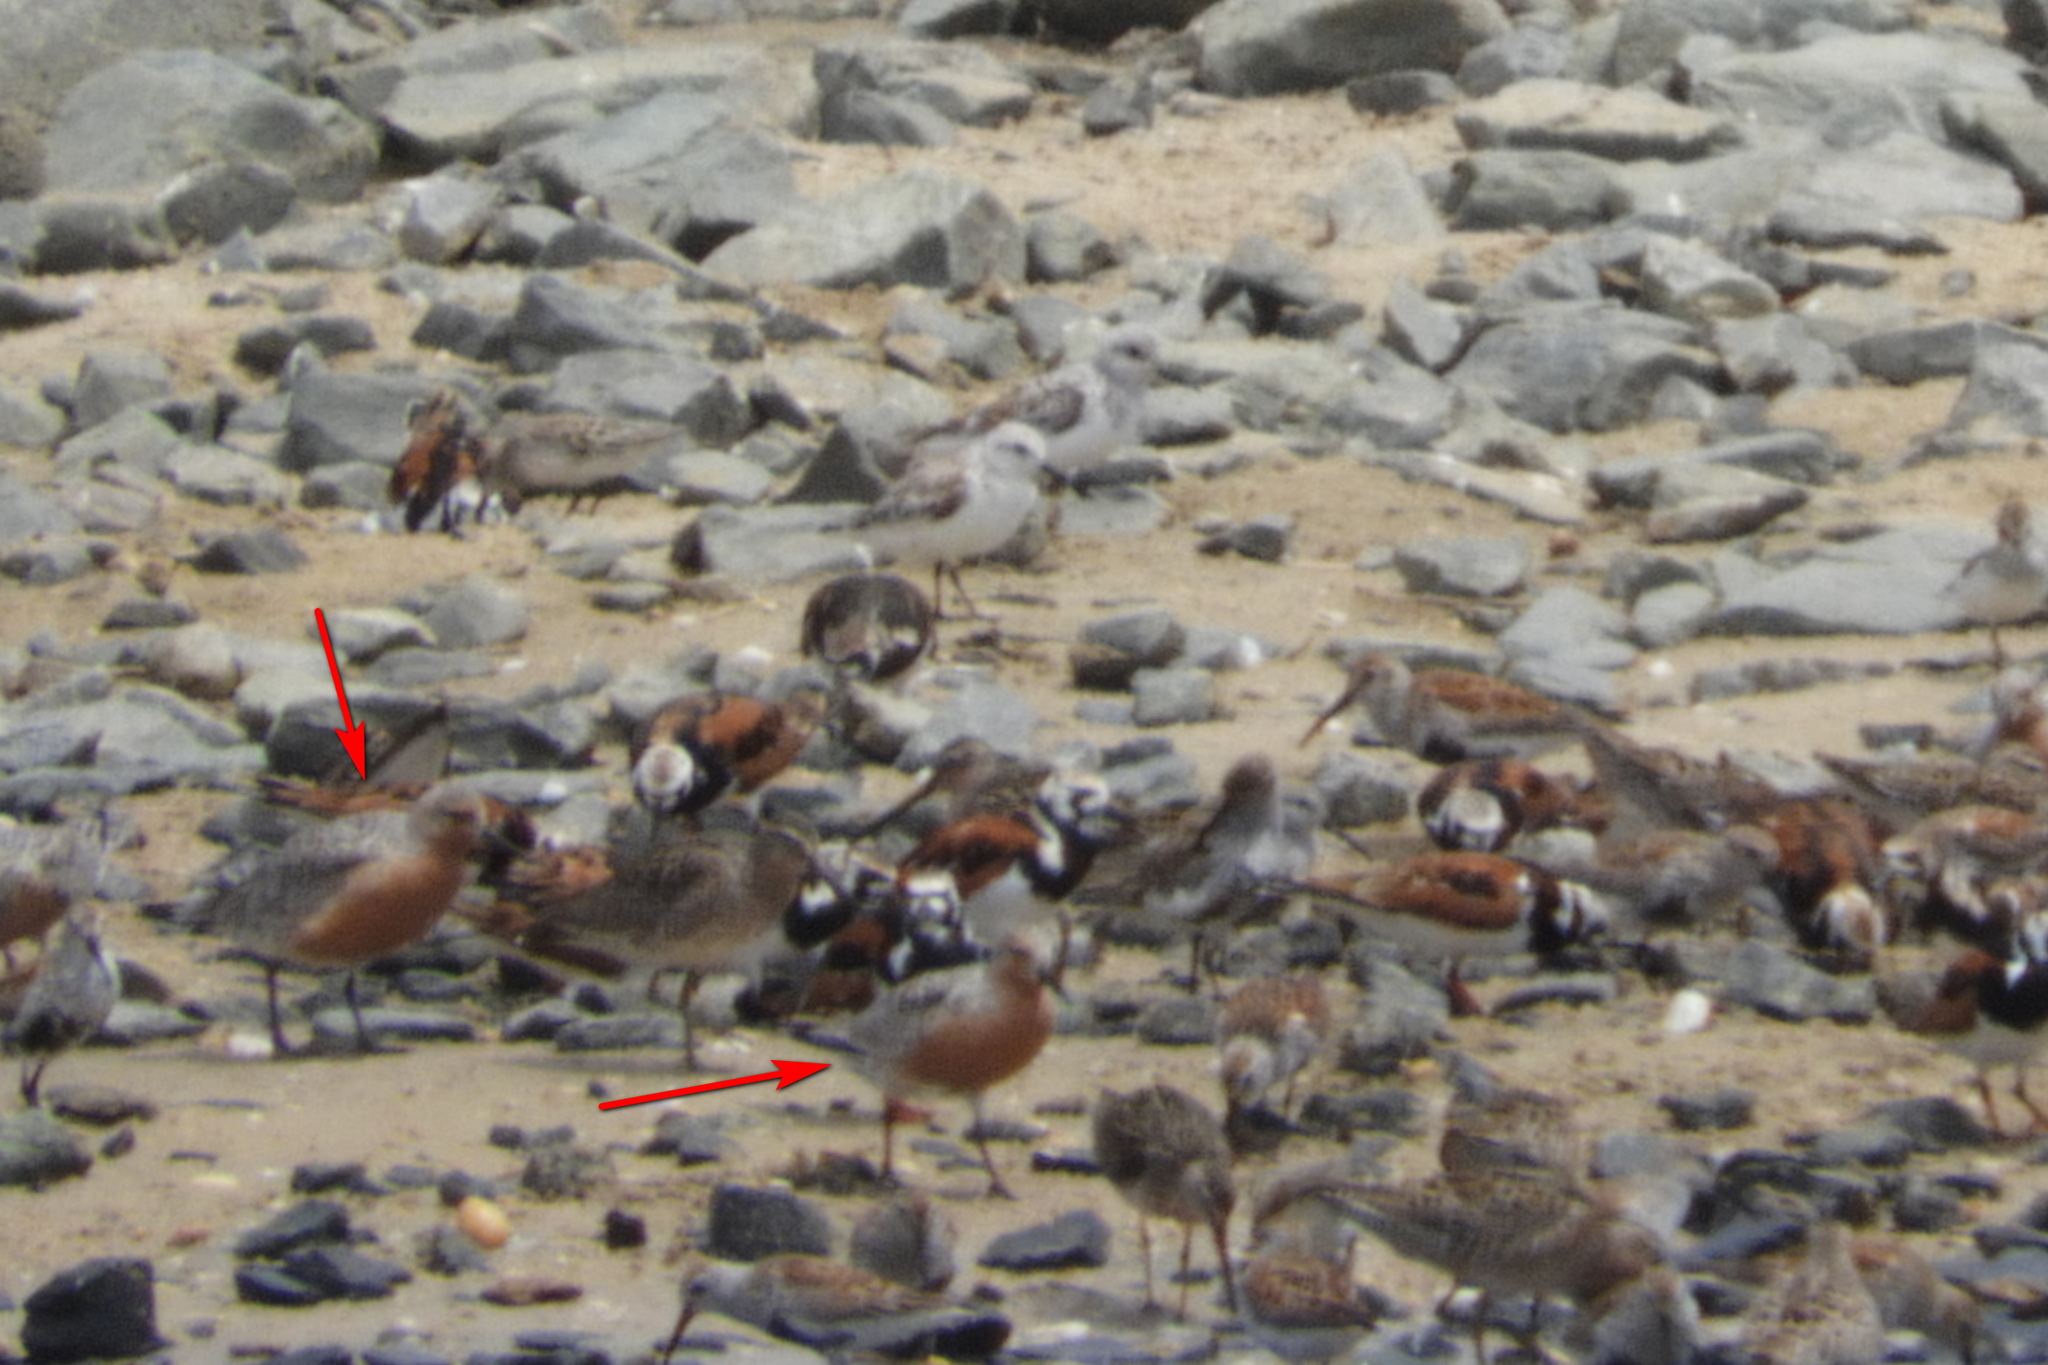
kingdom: Animalia
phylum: Chordata
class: Aves
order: Charadriiformes
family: Scolopacidae
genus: Calidris
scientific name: Calidris canutus
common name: Red knot
